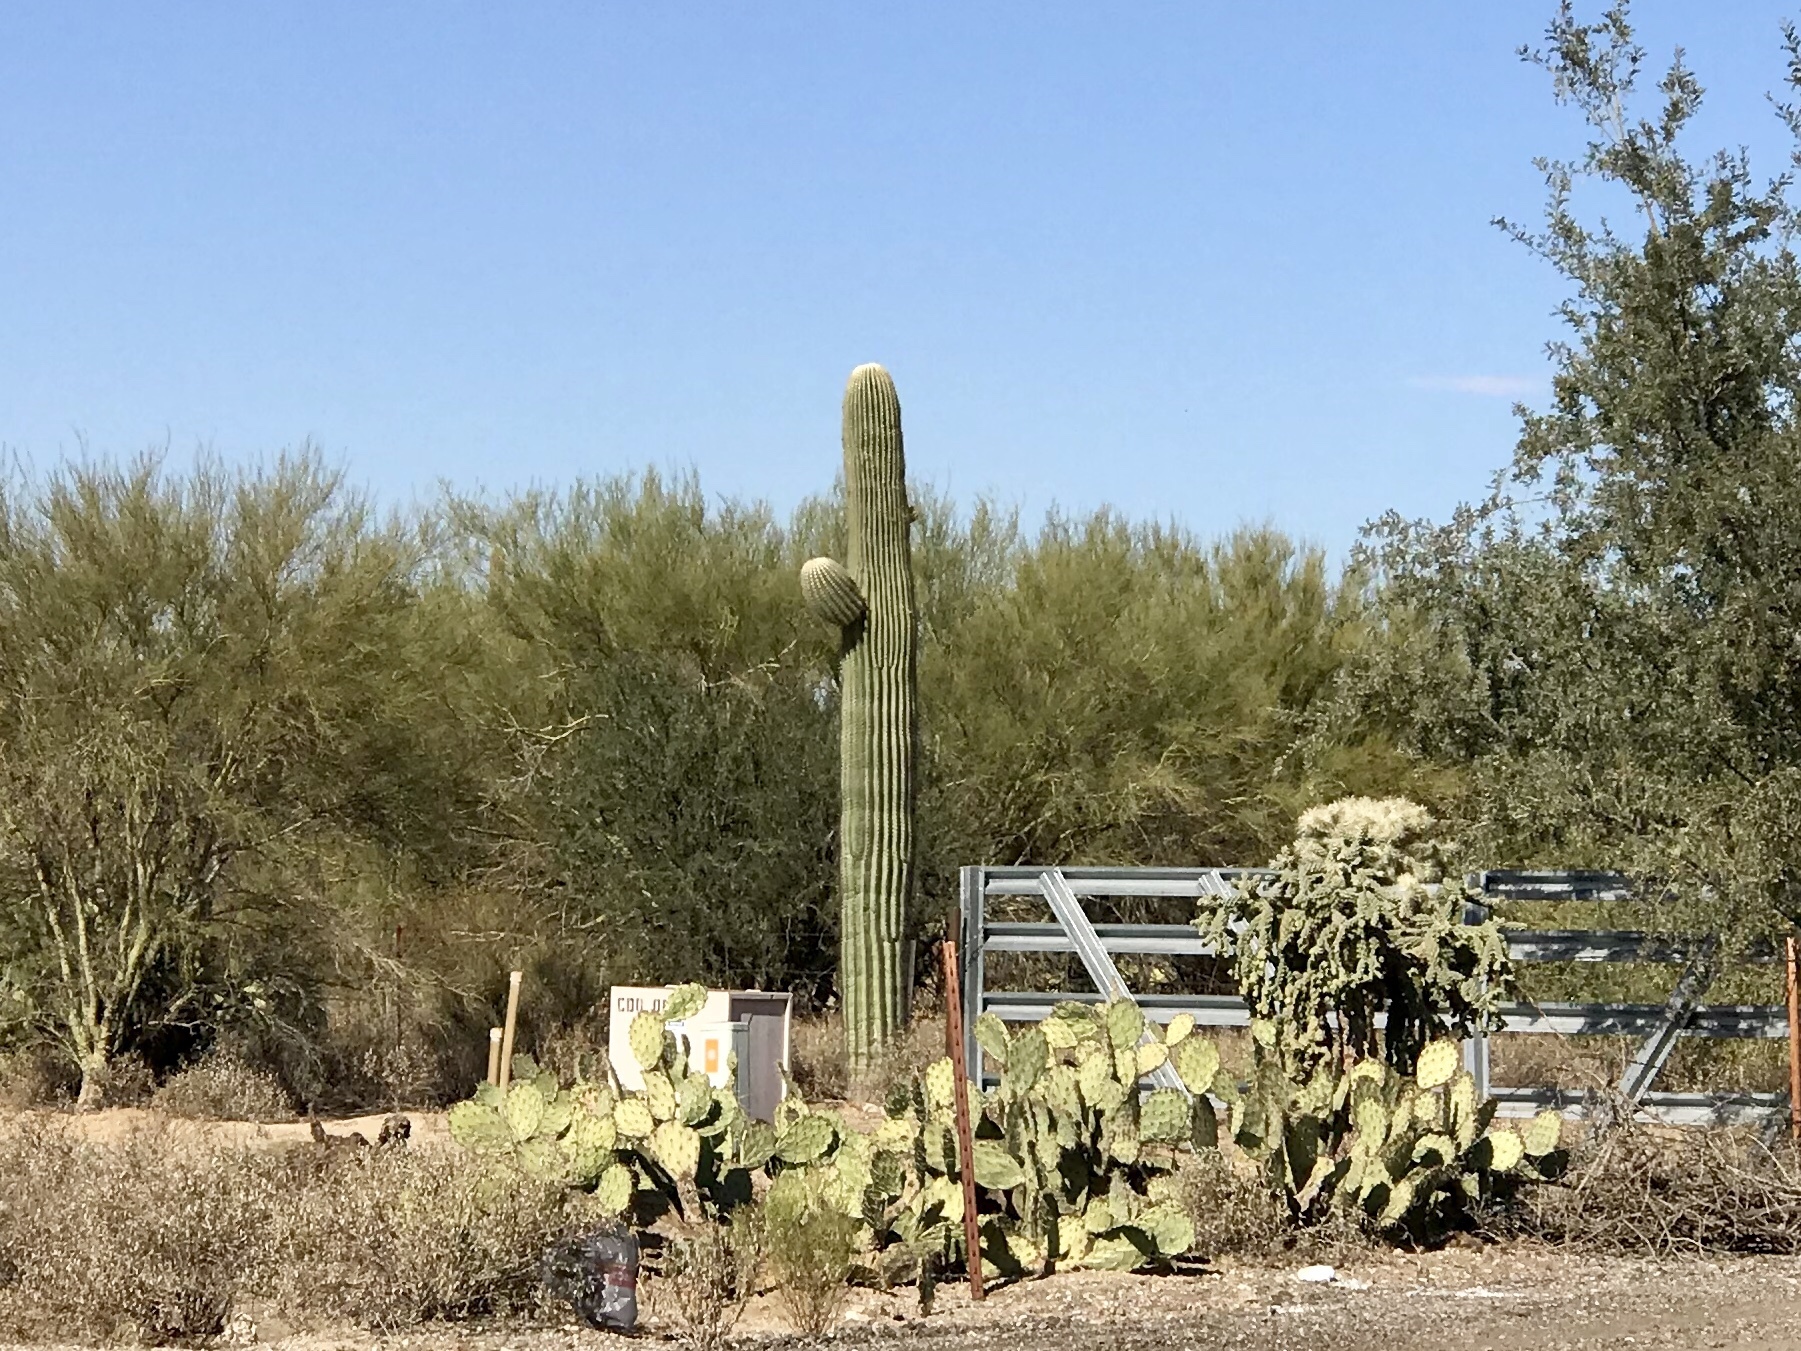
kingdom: Plantae
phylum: Tracheophyta
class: Magnoliopsida
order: Caryophyllales
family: Cactaceae
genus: Carnegiea
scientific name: Carnegiea gigantea
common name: Saguaro
